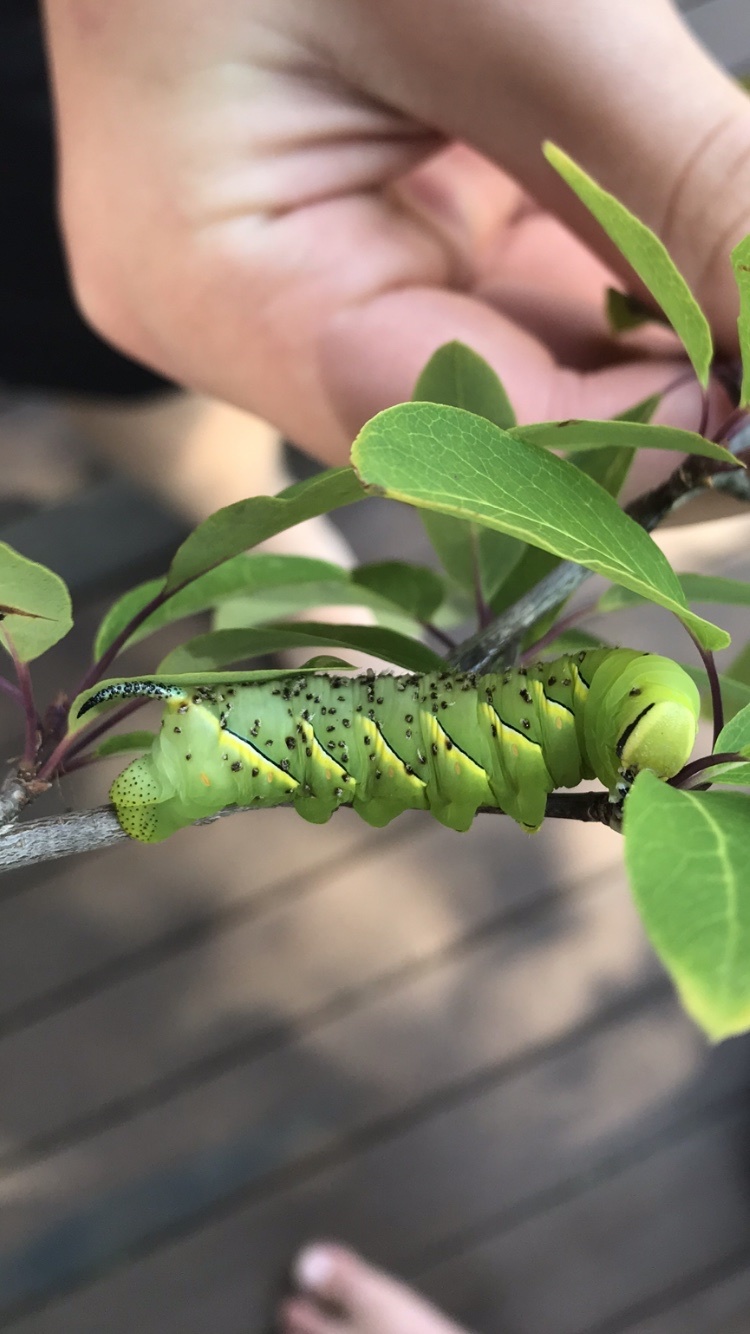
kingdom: Animalia
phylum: Arthropoda
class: Insecta
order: Lepidoptera
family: Sphingidae
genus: Sphinx
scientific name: Sphinx kalmiae
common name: Laurel sphinx
